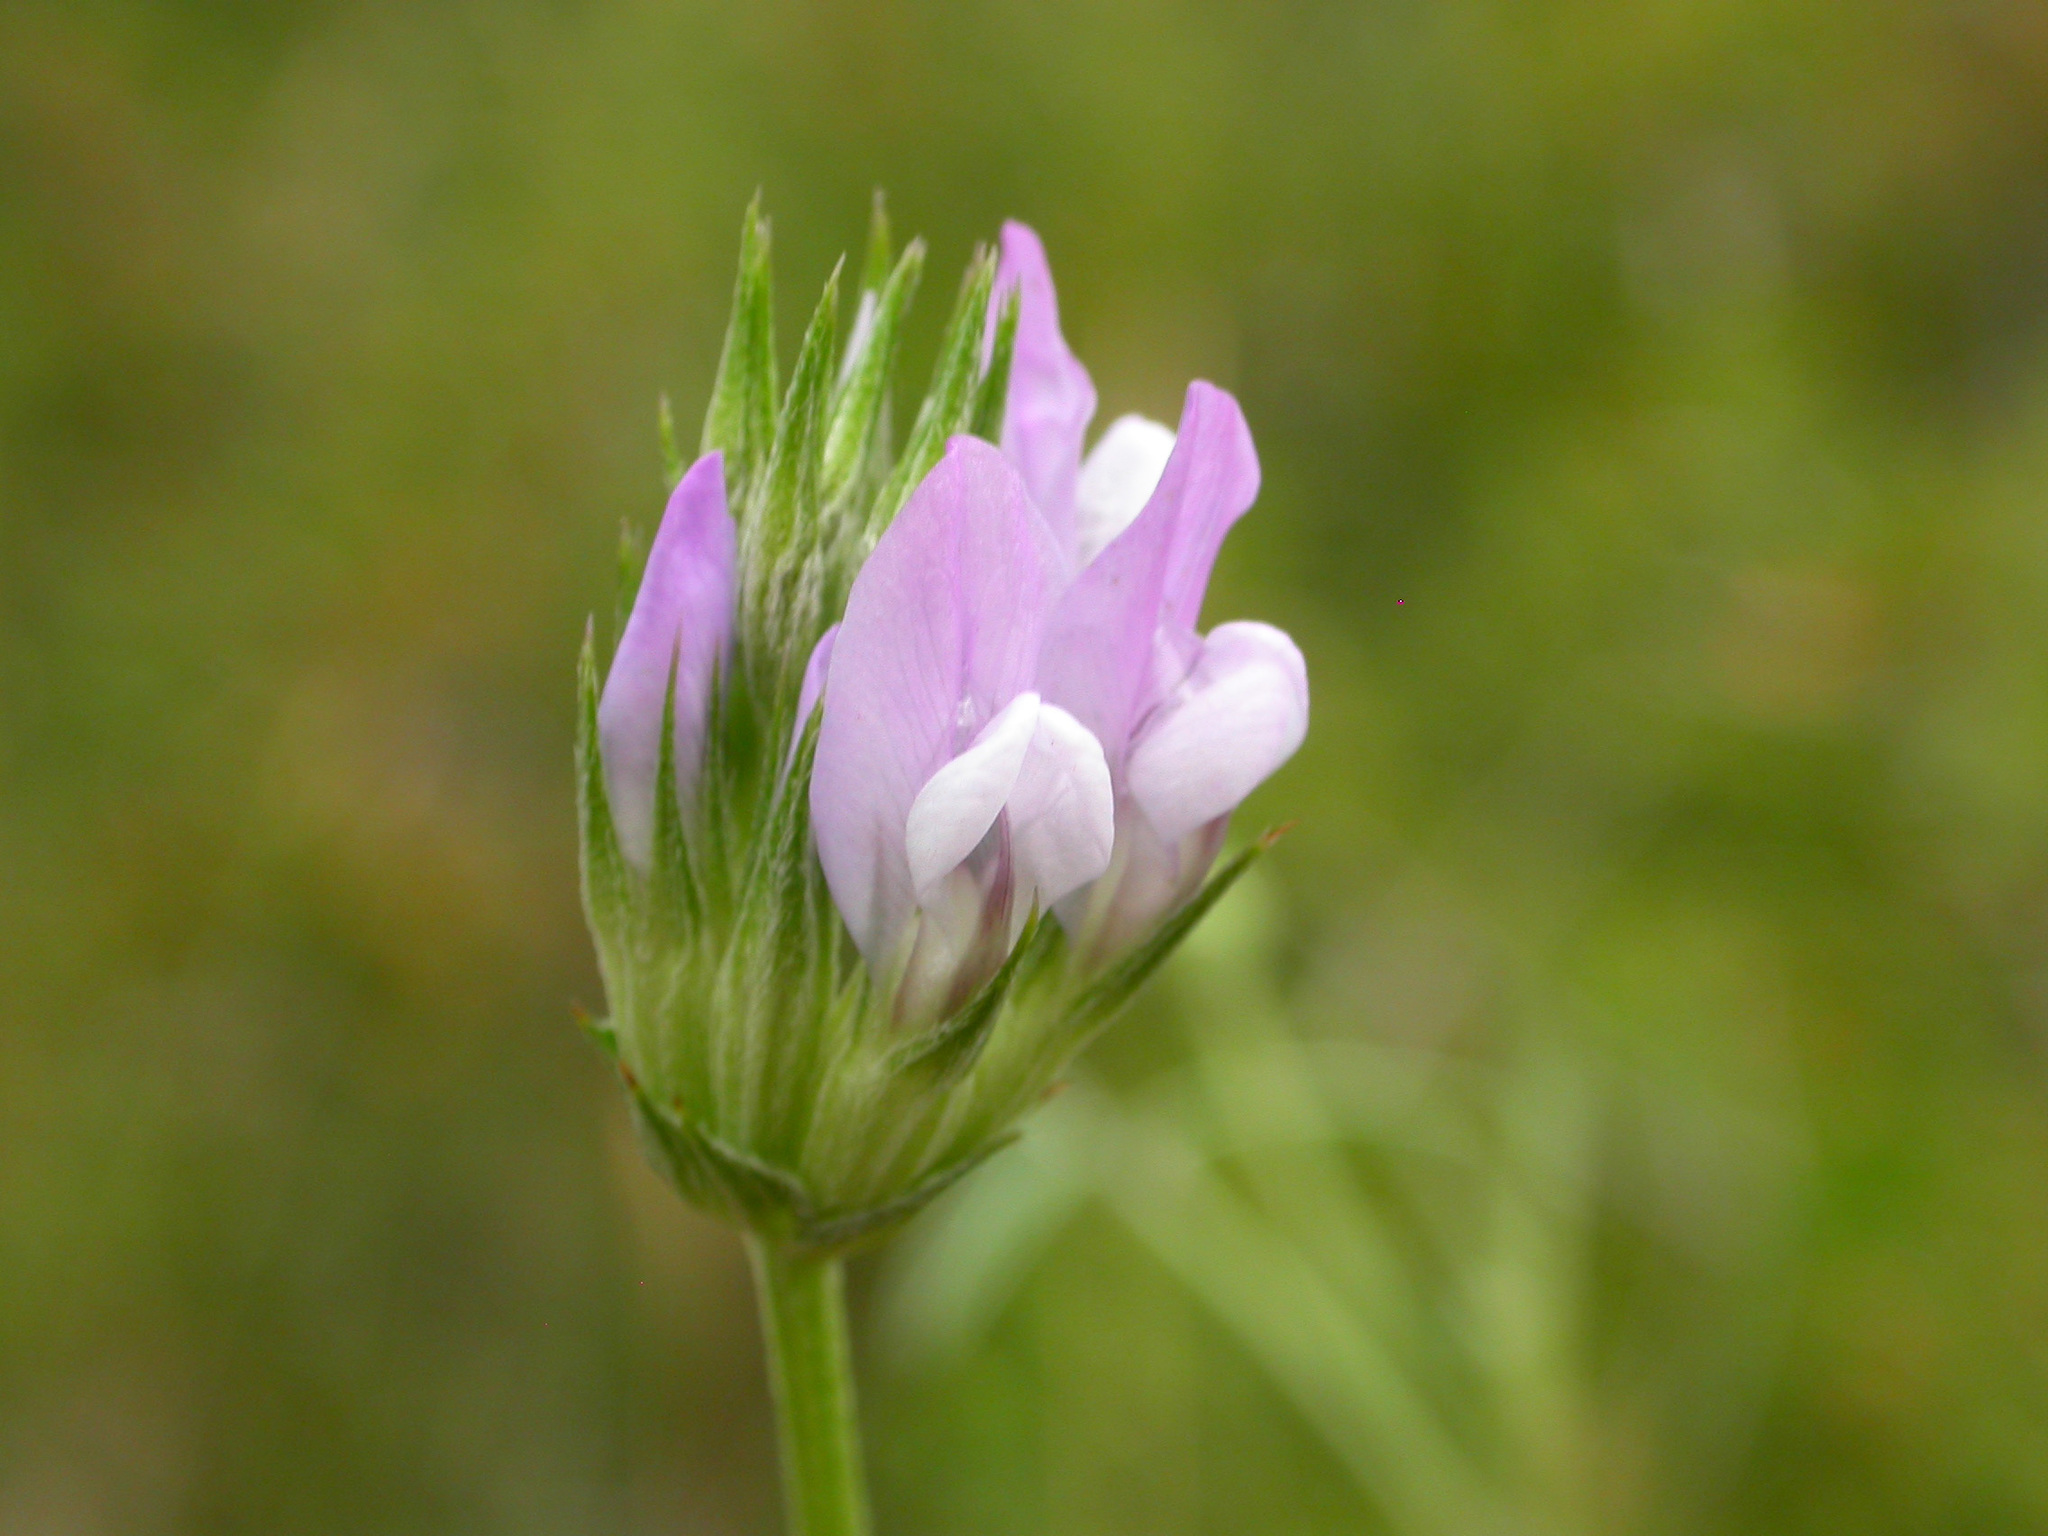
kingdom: Plantae
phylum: Tracheophyta
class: Magnoliopsida
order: Fabales
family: Fabaceae
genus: Bituminaria
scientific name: Bituminaria bituminosa
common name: Arabian pea
